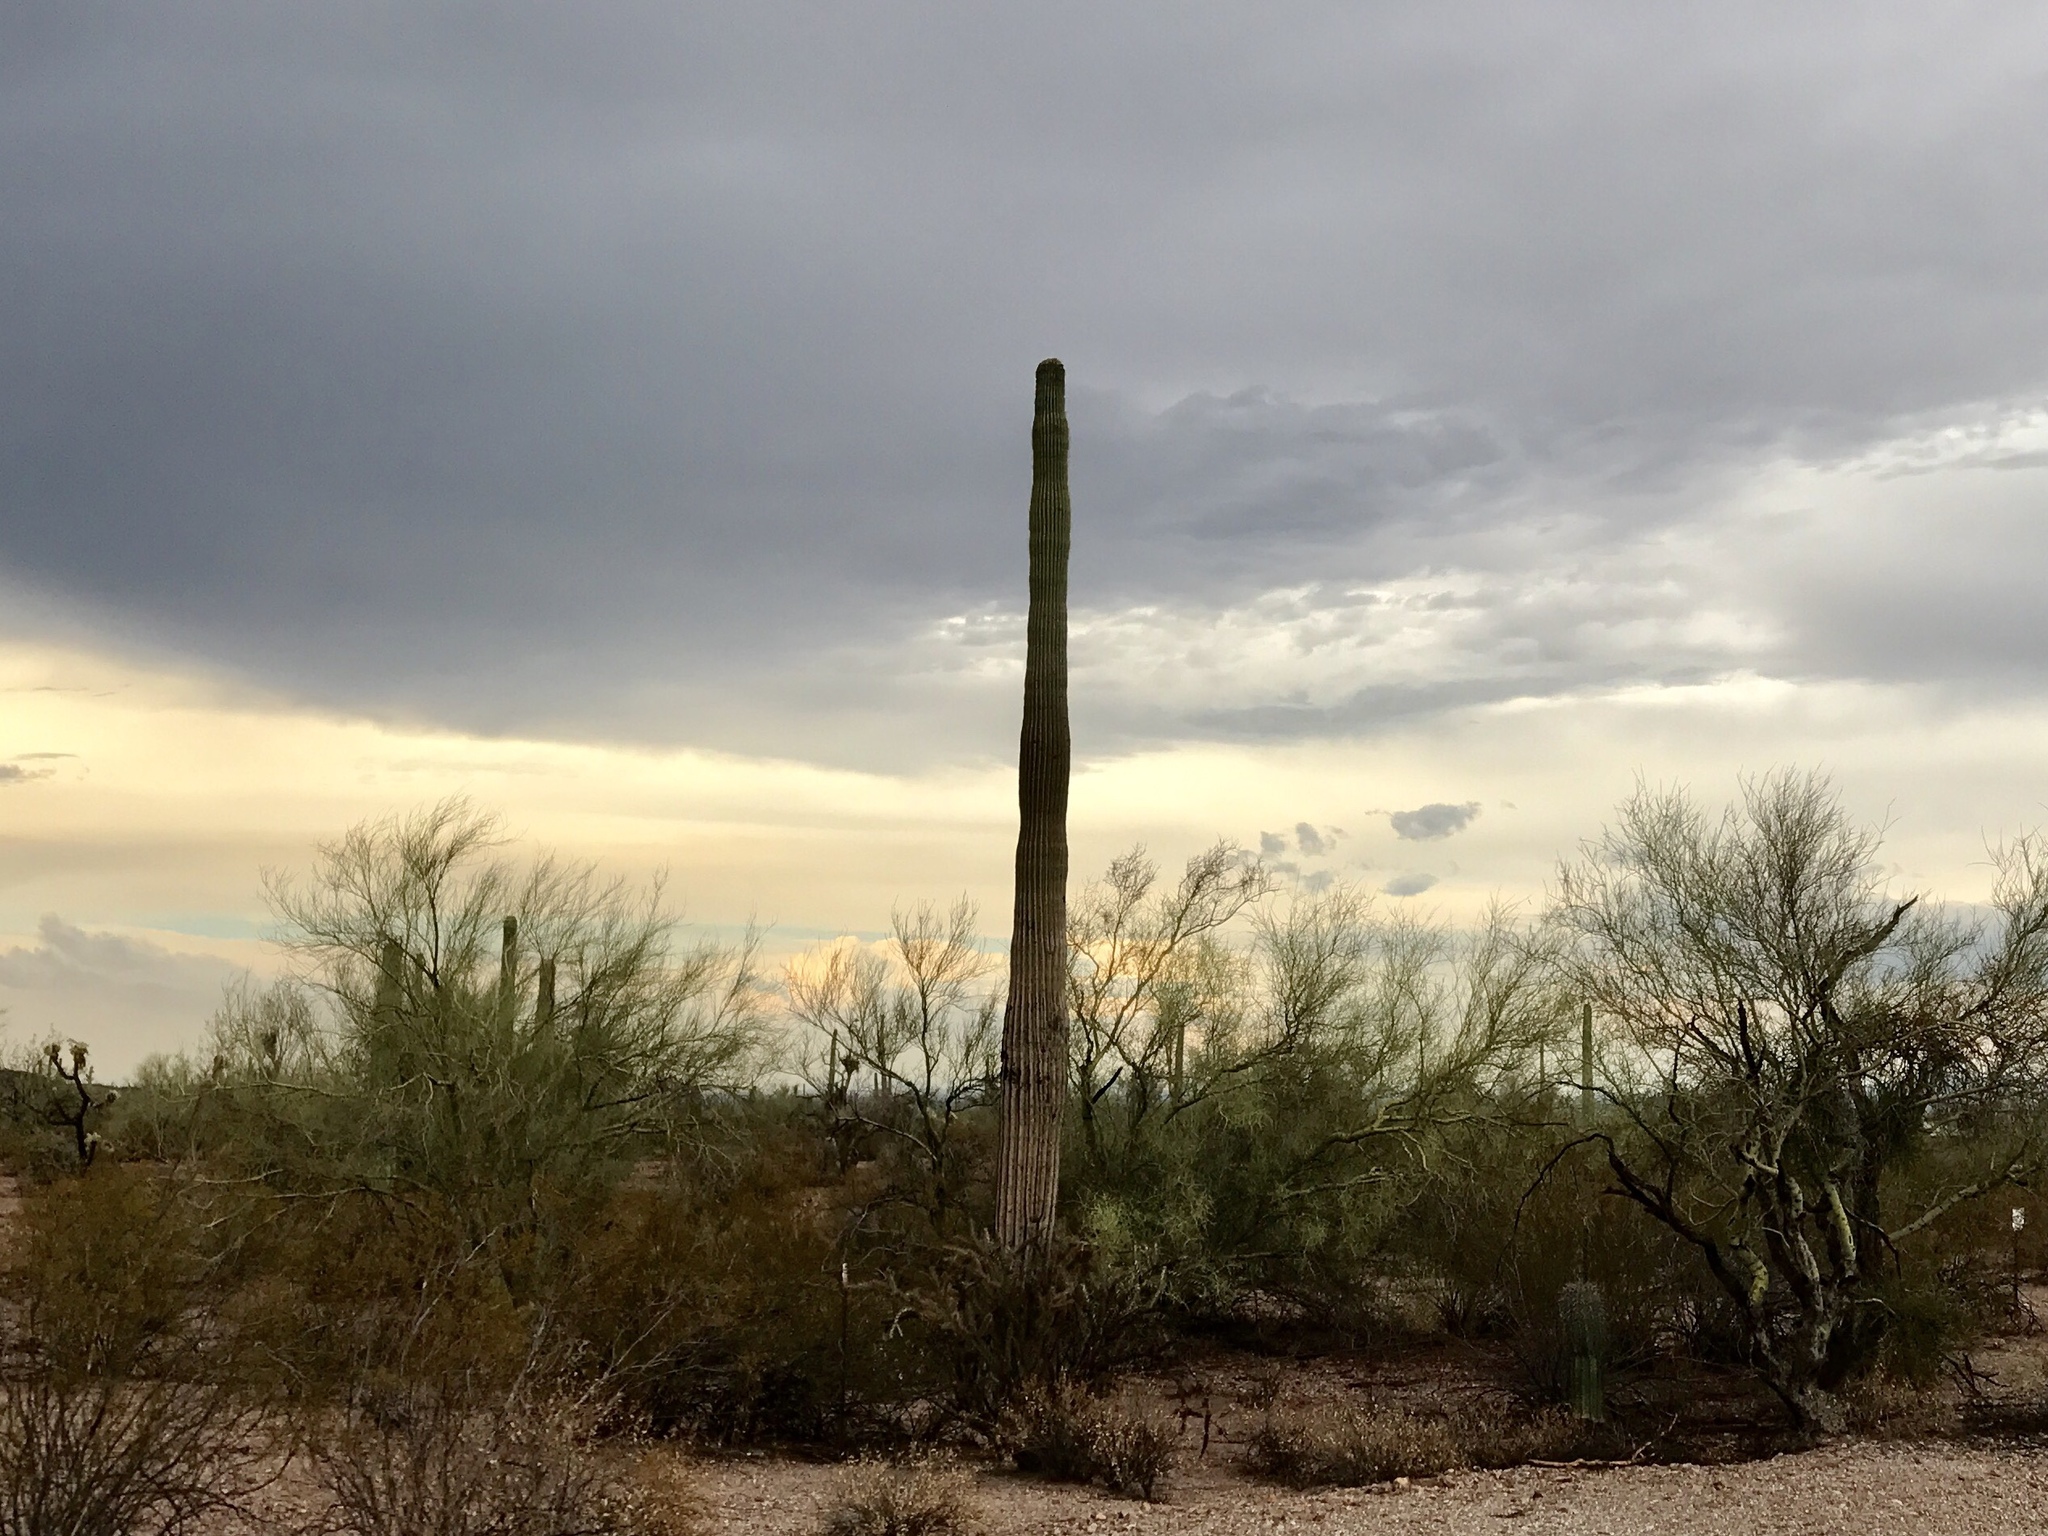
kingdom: Plantae
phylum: Tracheophyta
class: Magnoliopsida
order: Caryophyllales
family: Cactaceae
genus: Carnegiea
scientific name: Carnegiea gigantea
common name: Saguaro
